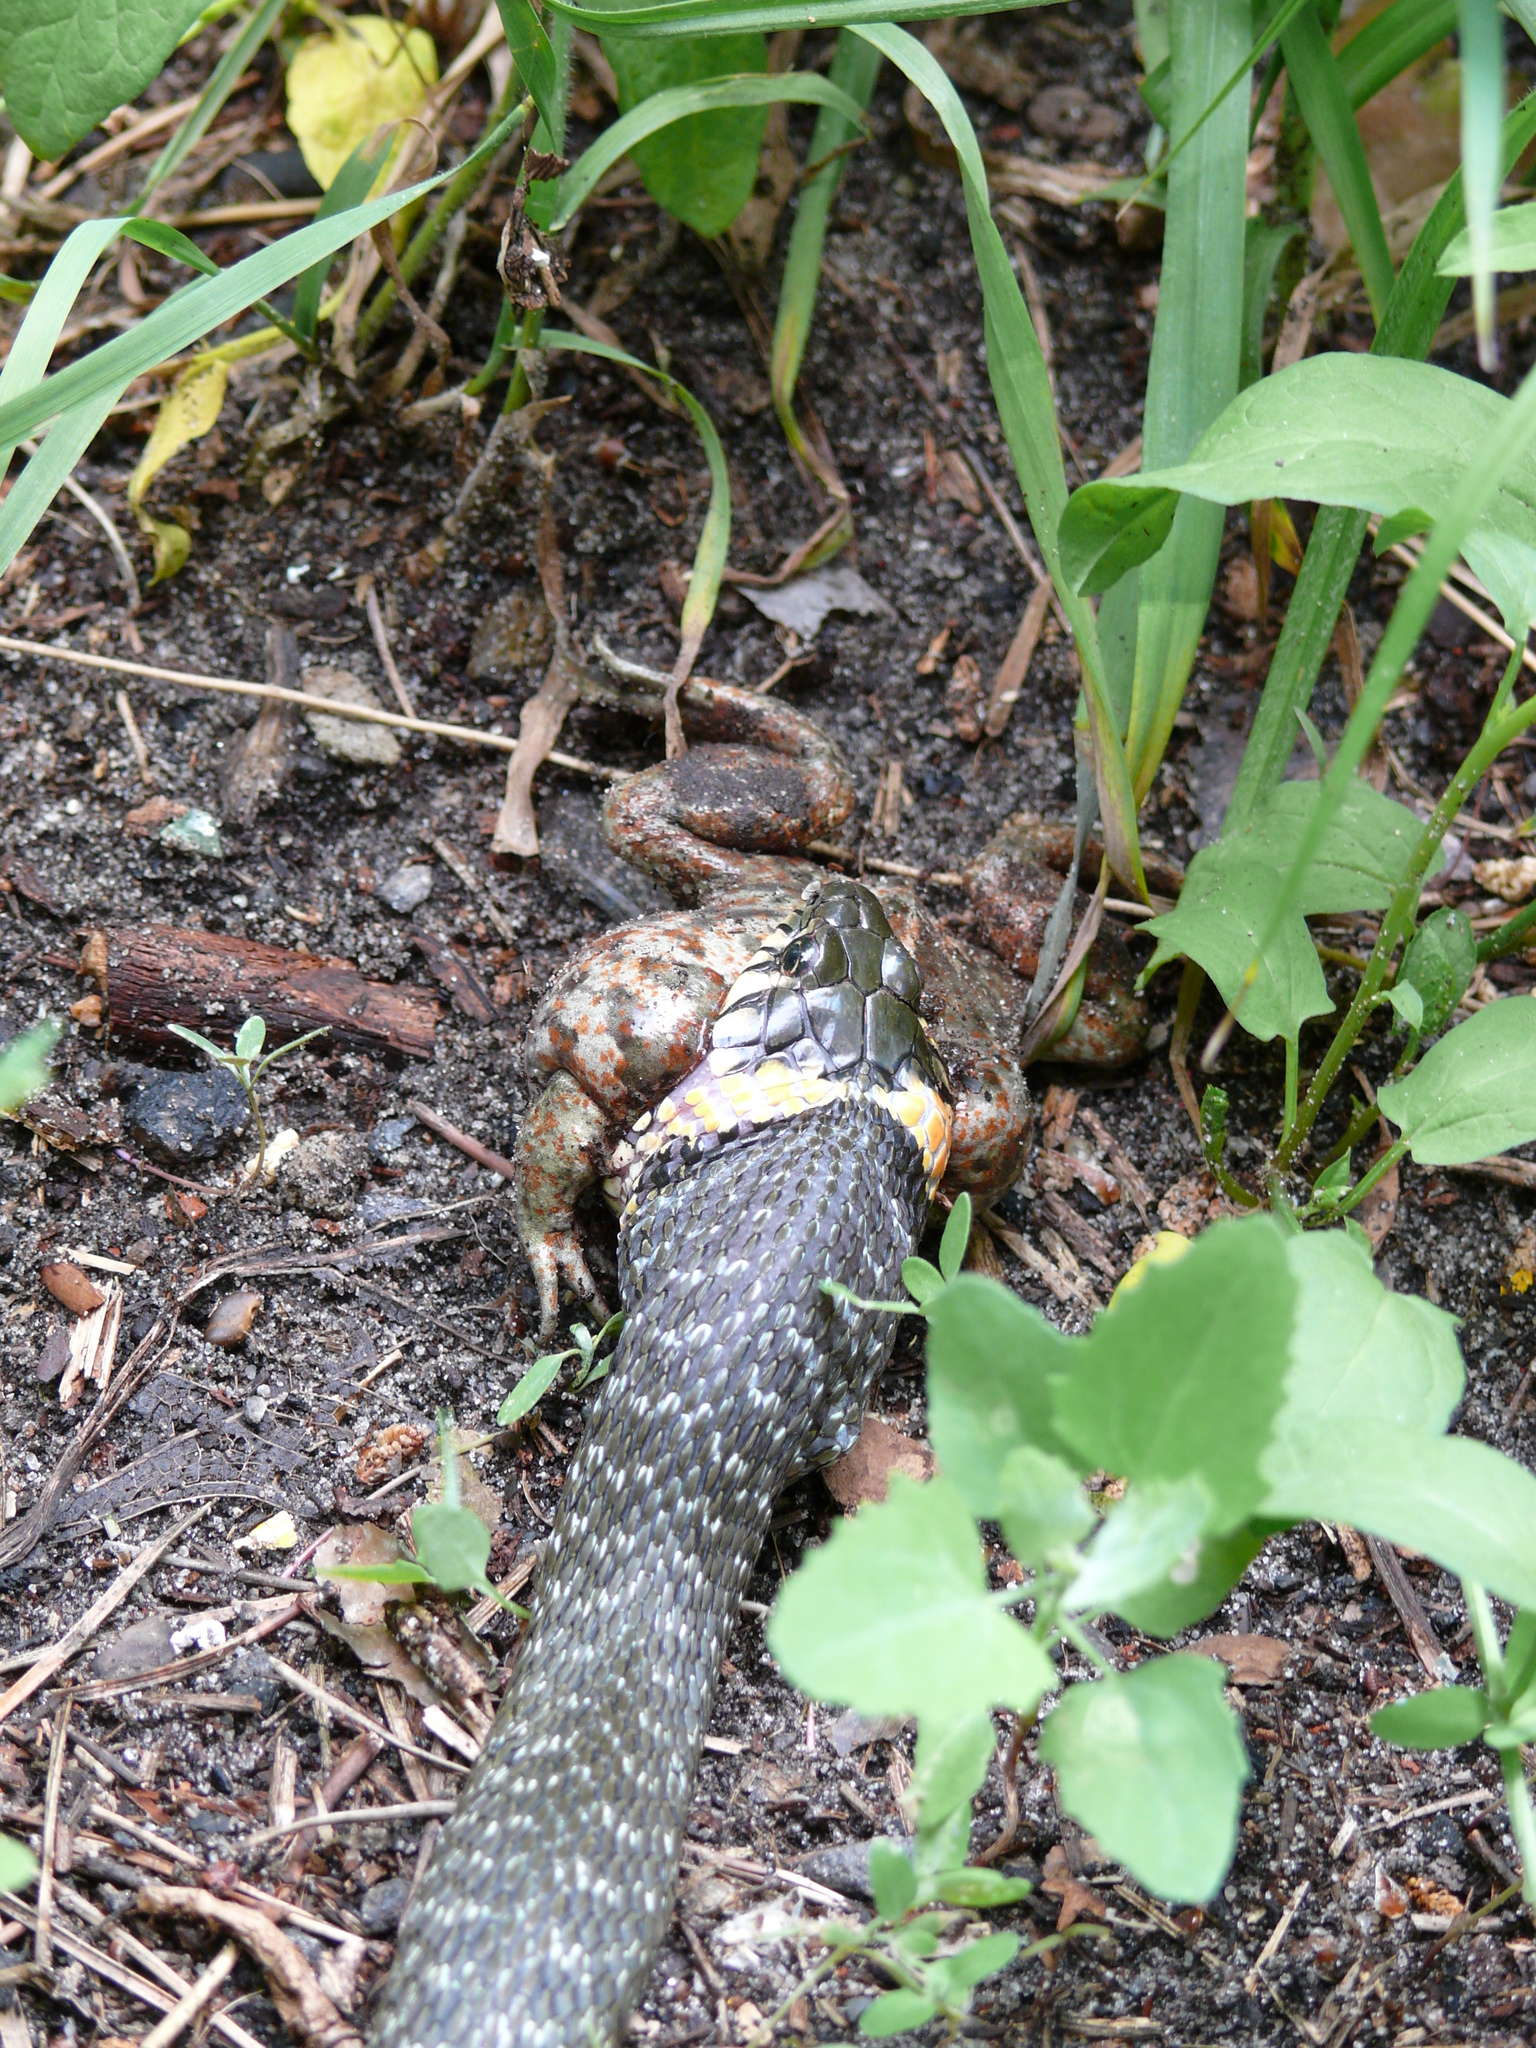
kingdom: Animalia
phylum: Chordata
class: Squamata
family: Colubridae
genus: Natrix
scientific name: Natrix natrix
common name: Grass snake
